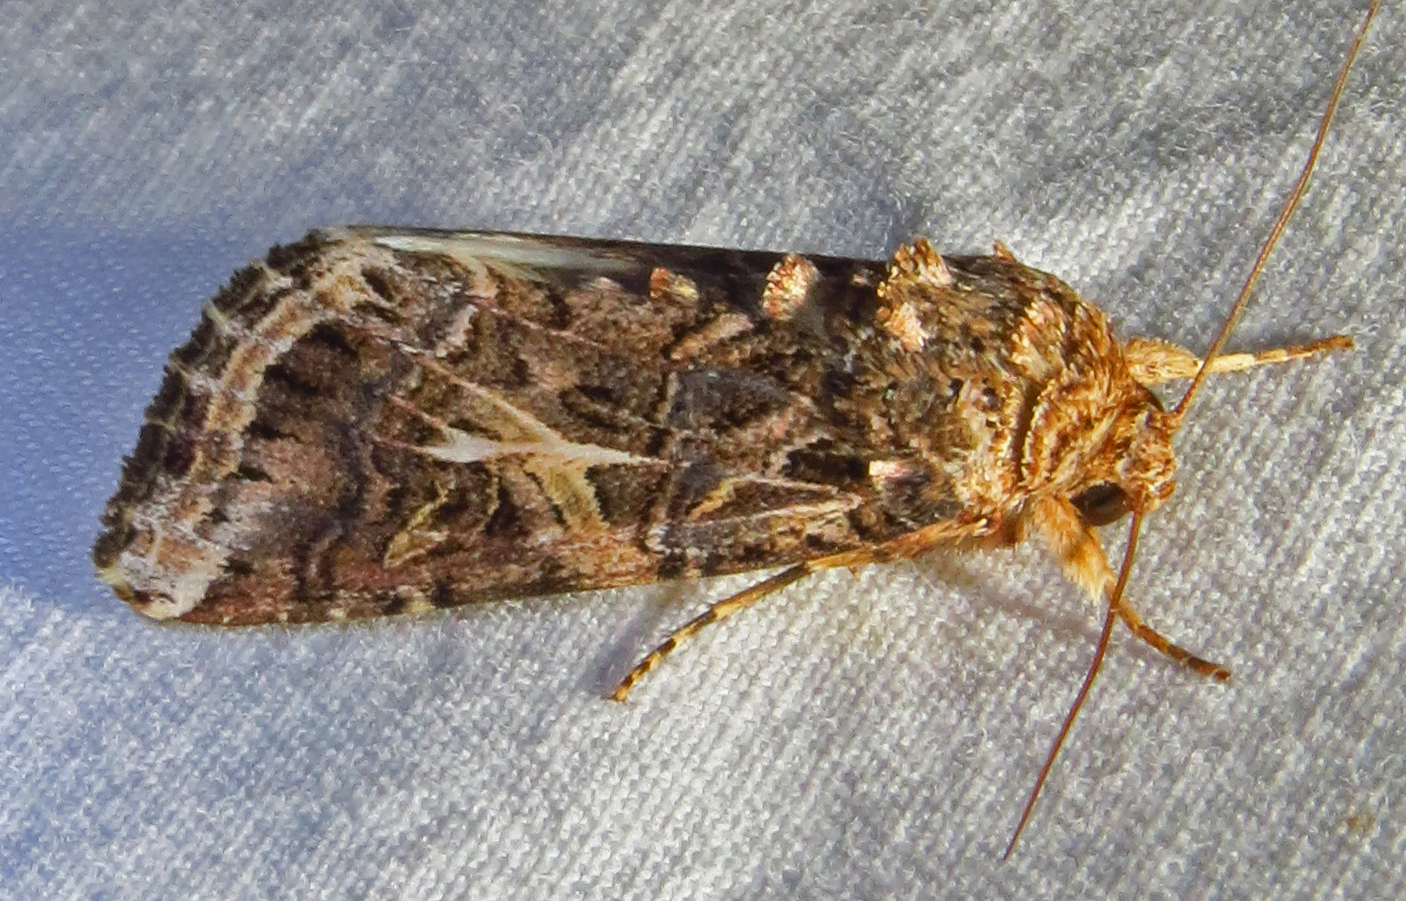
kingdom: Animalia
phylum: Arthropoda
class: Insecta
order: Lepidoptera
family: Noctuidae
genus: Spodoptera
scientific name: Spodoptera ornithogalli
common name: Yellow-striped armyworm
